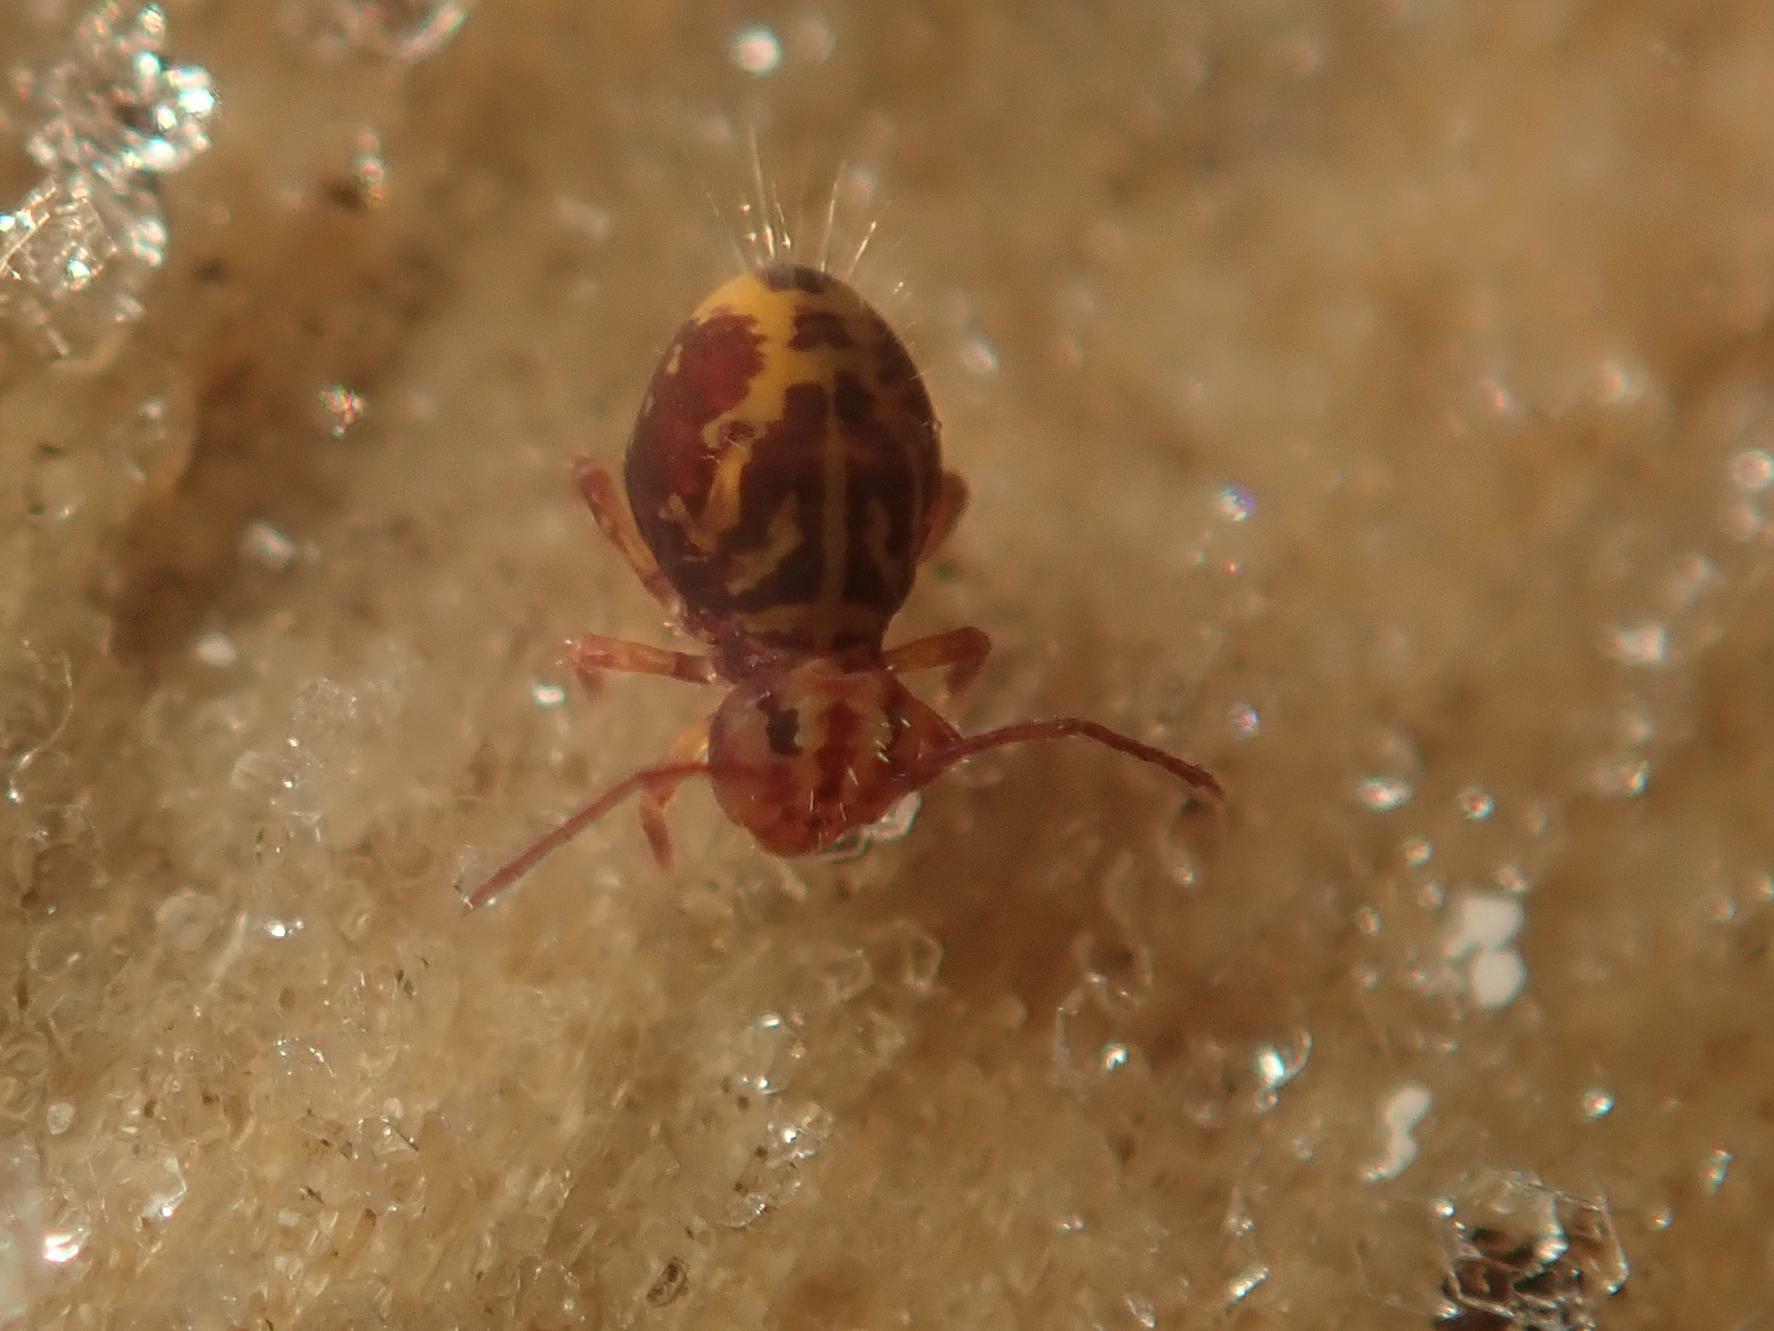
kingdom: Animalia
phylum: Arthropoda
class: Collembola
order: Symphypleona
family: Dicyrtomidae
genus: Dicyrtomina
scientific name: Dicyrtomina ornata
